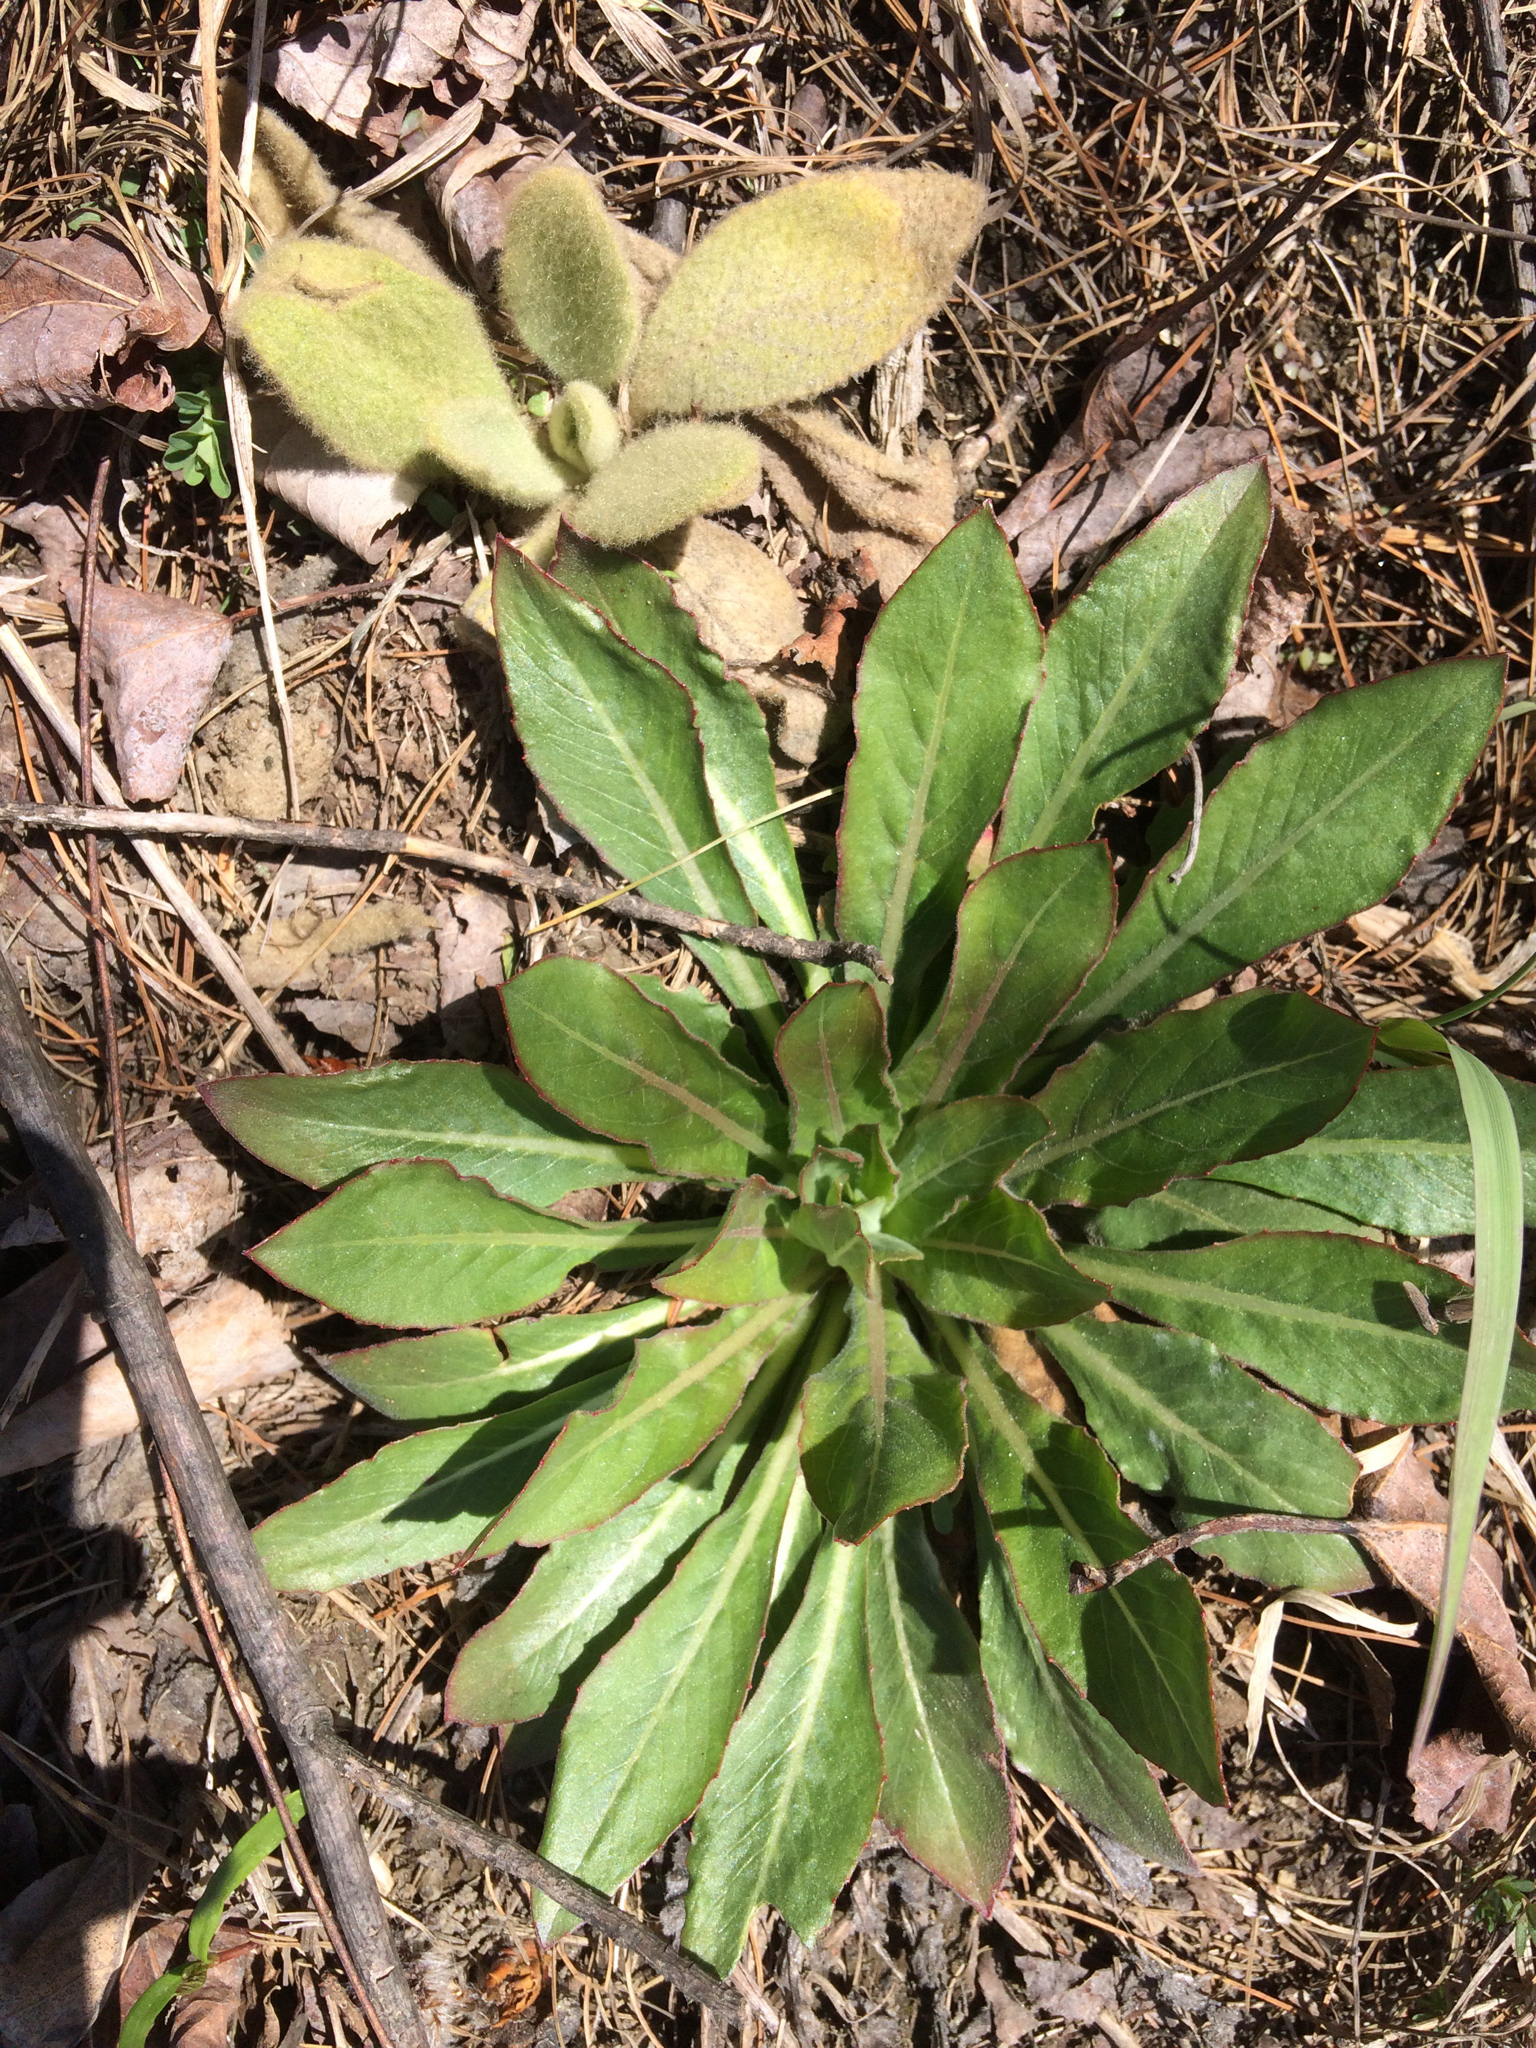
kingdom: Plantae
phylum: Tracheophyta
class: Magnoliopsida
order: Lamiales
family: Scrophulariaceae
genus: Verbascum
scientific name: Verbascum thapsus
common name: Common mullein
